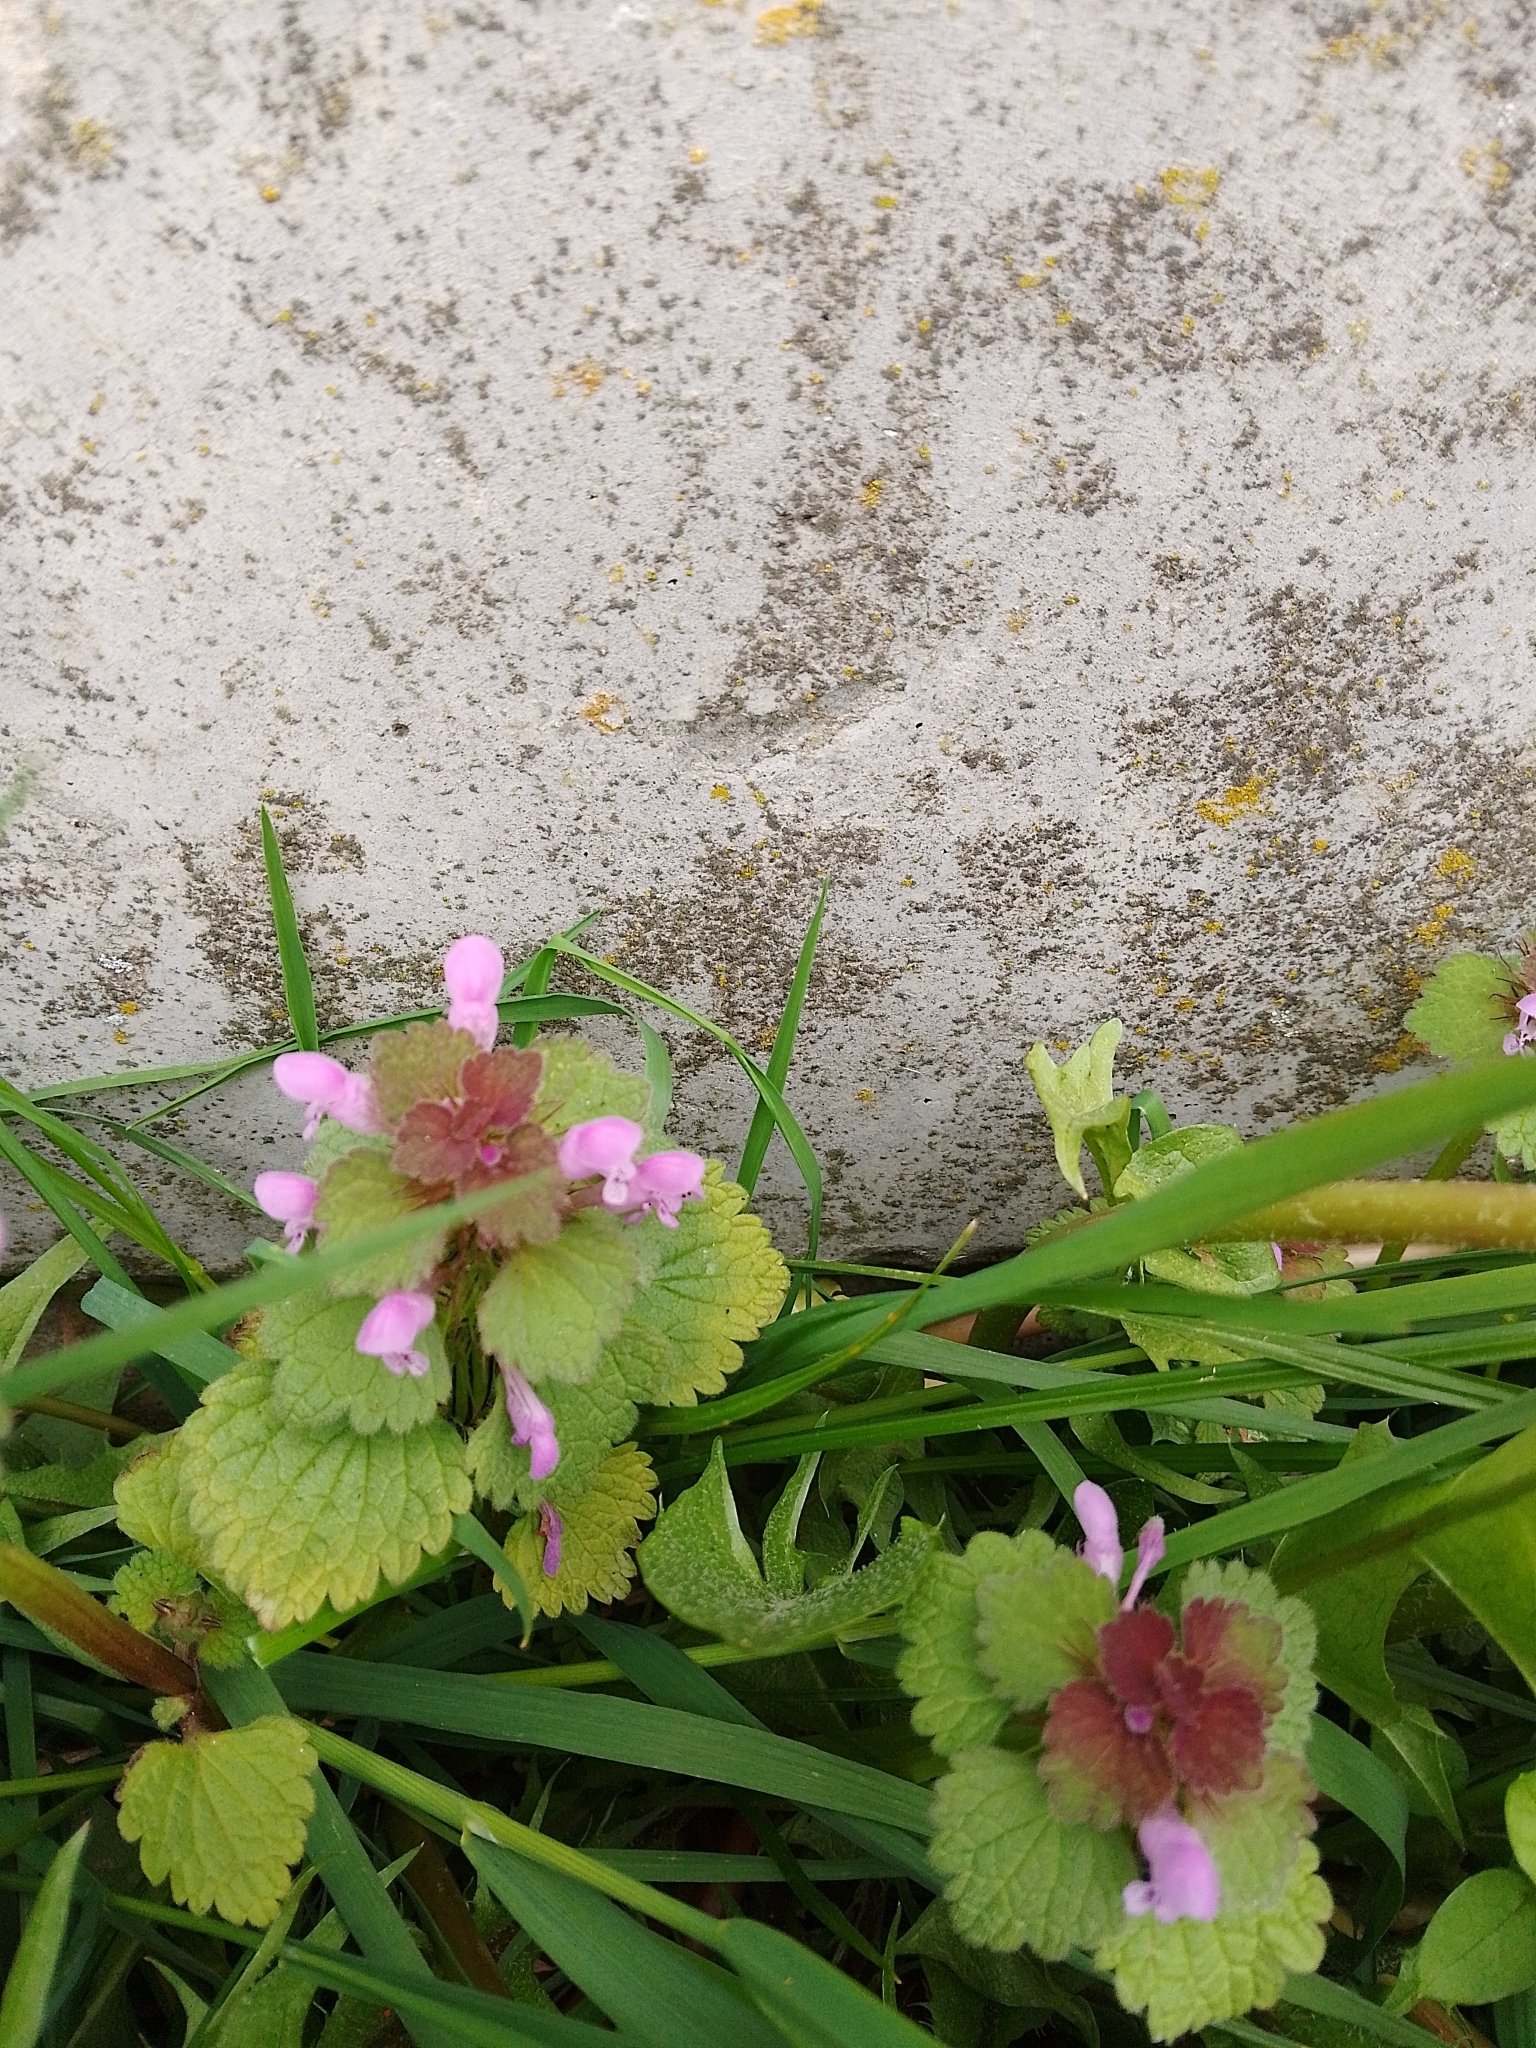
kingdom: Plantae
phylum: Tracheophyta
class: Magnoliopsida
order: Lamiales
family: Lamiaceae
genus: Lamium
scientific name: Lamium purpureum
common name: Red dead-nettle
